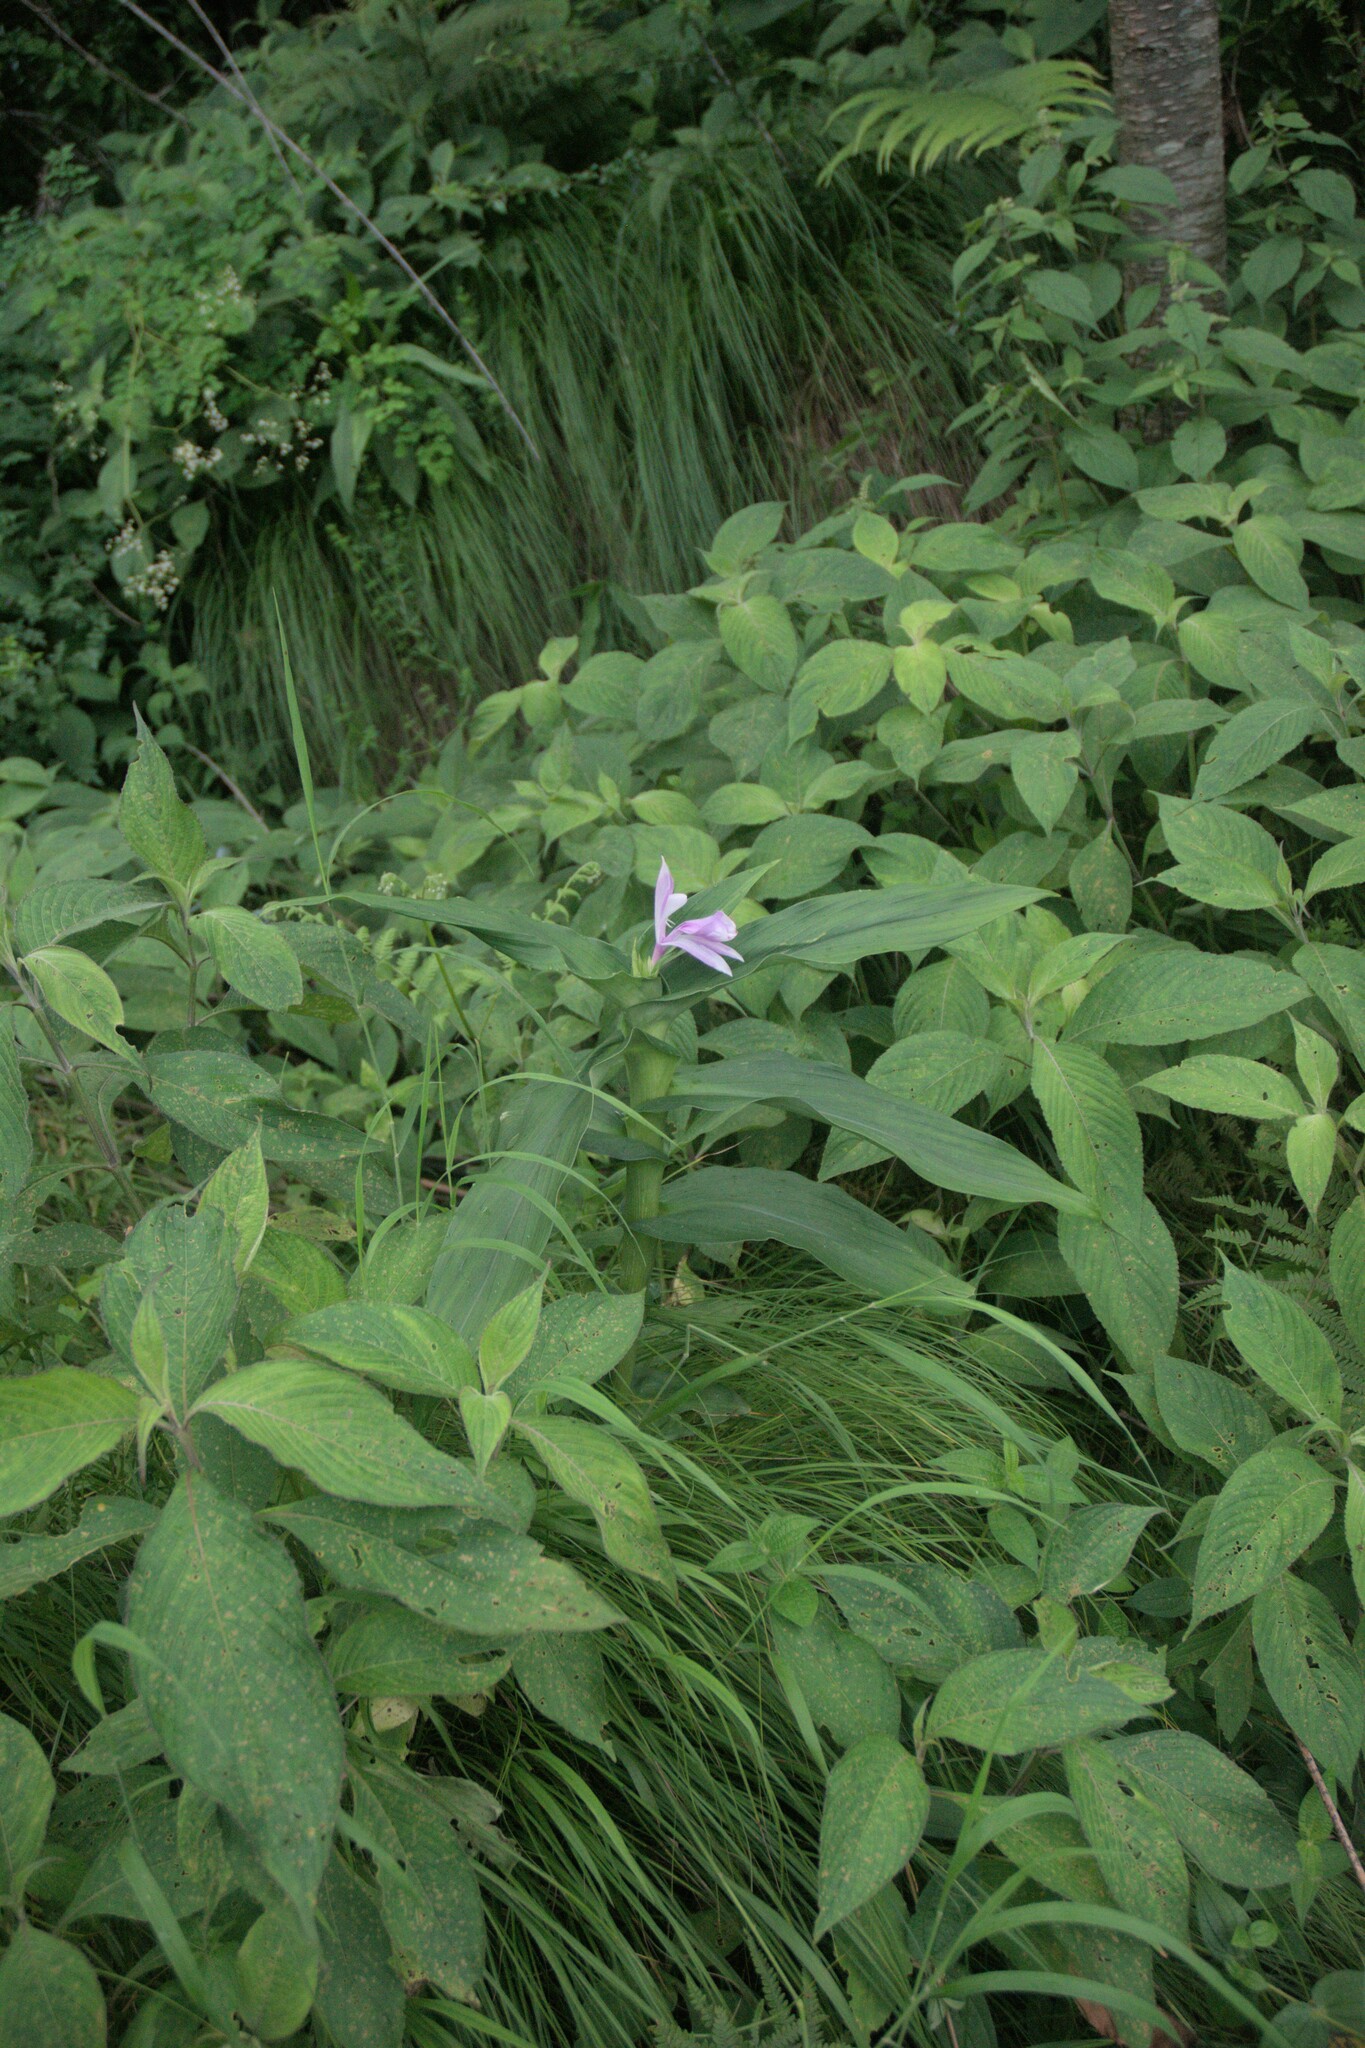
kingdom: Plantae
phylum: Tracheophyta
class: Liliopsida
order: Zingiberales
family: Zingiberaceae
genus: Roscoea
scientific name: Roscoea purpurea
